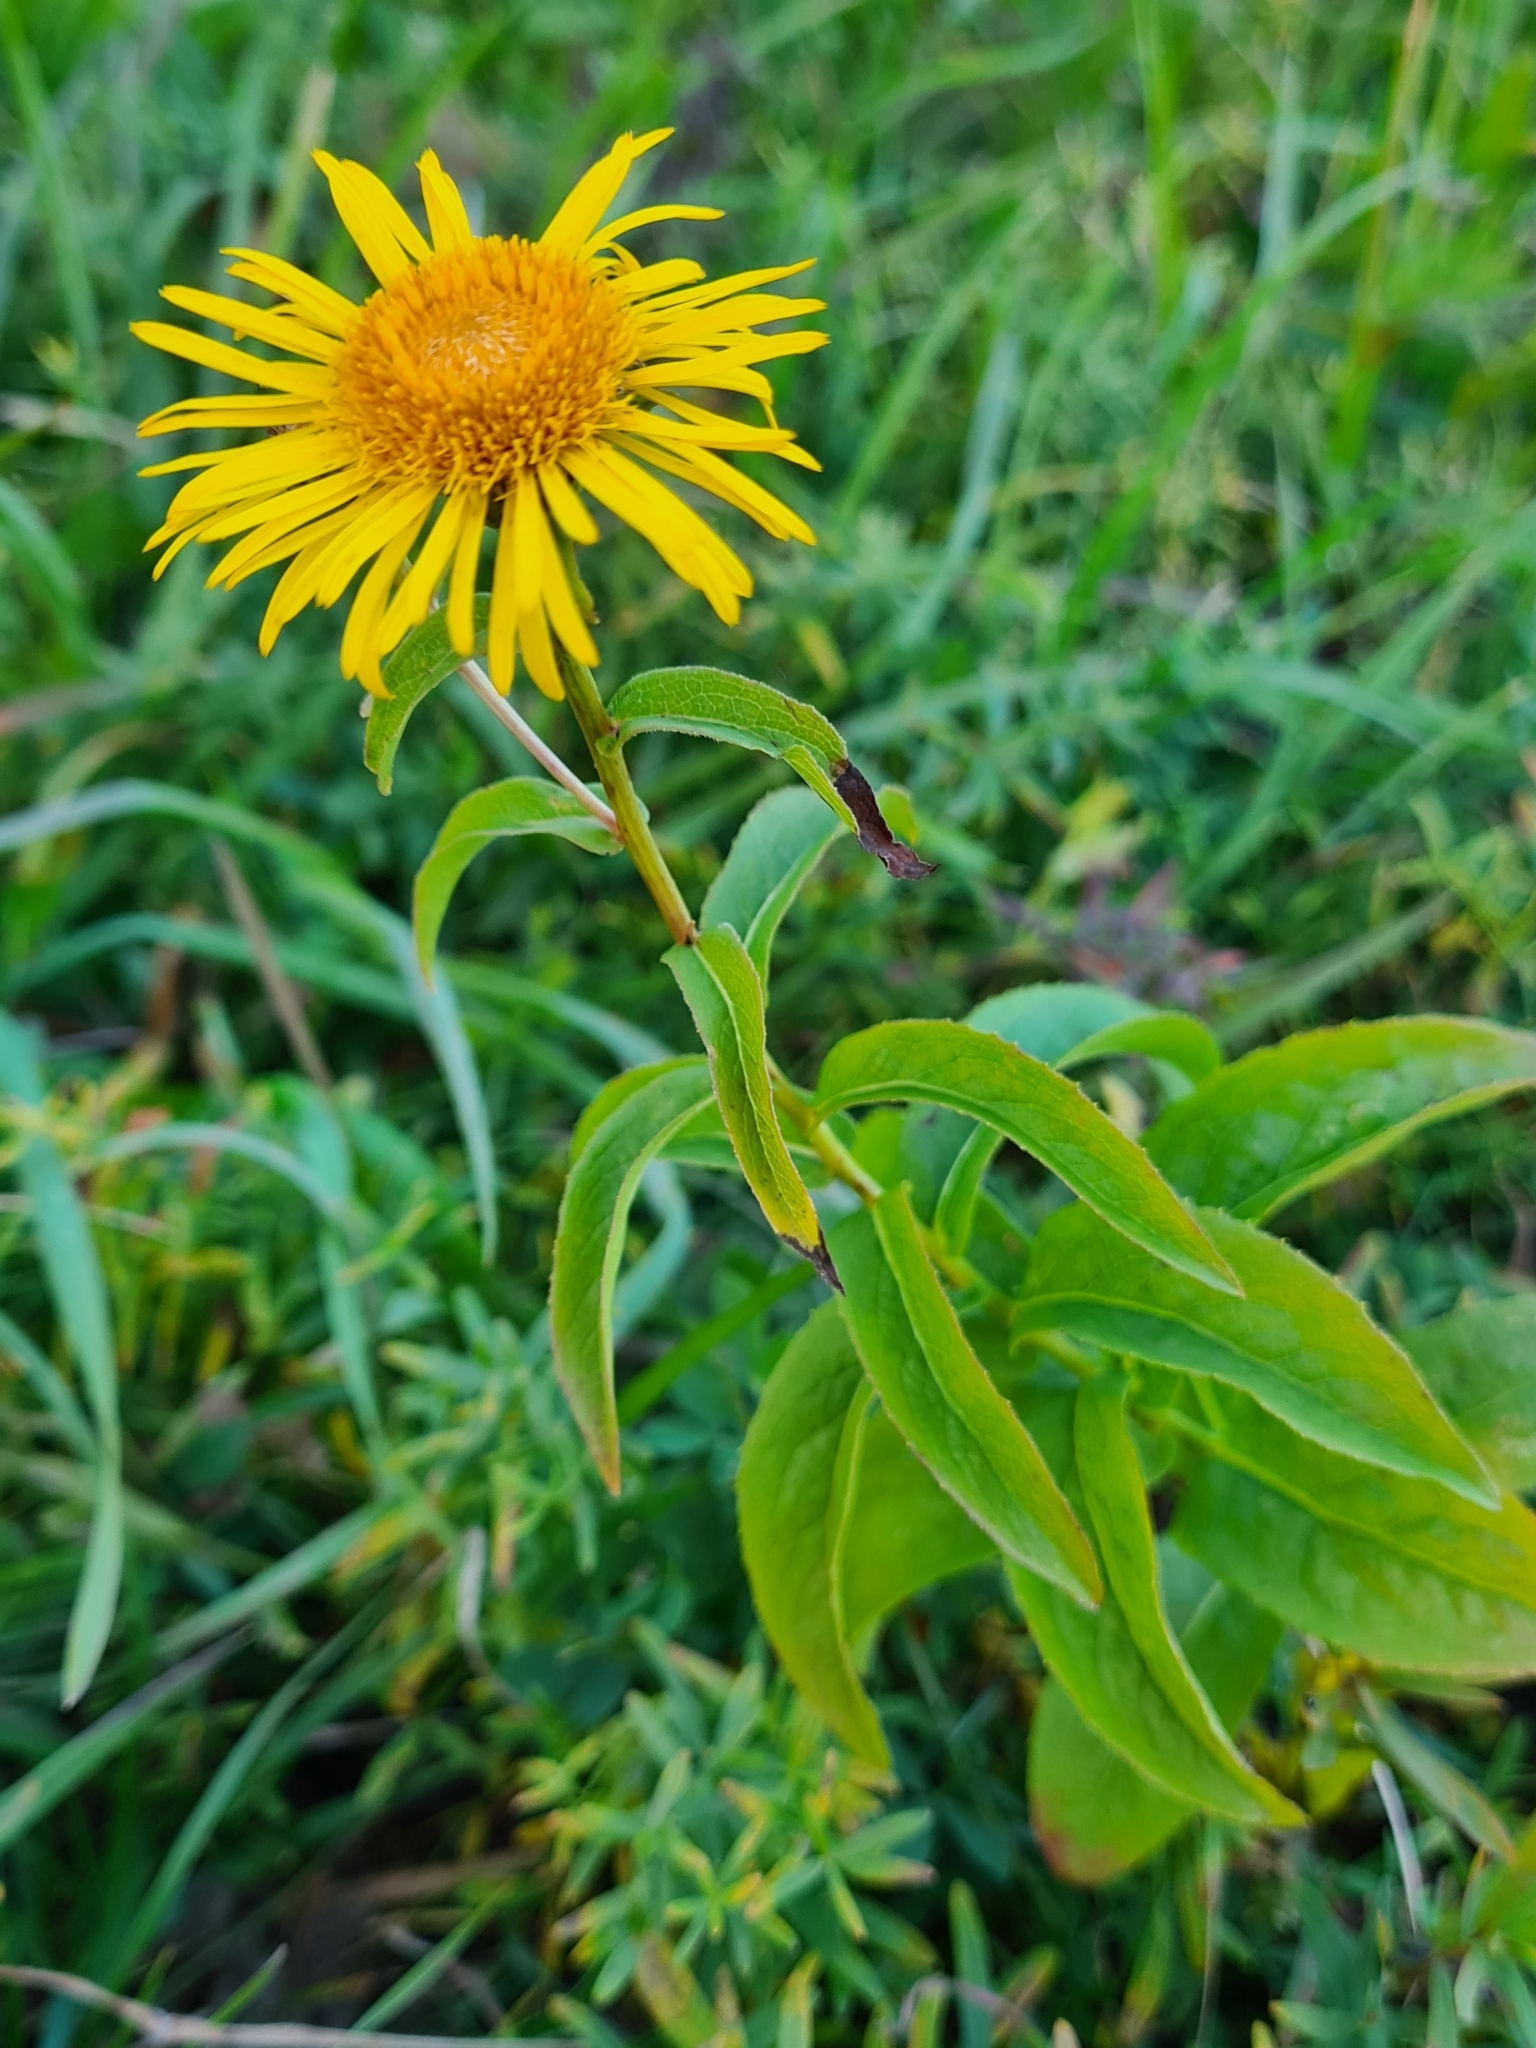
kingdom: Plantae
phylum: Tracheophyta
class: Magnoliopsida
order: Asterales
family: Asteraceae
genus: Pentanema
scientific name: Pentanema salicinum
